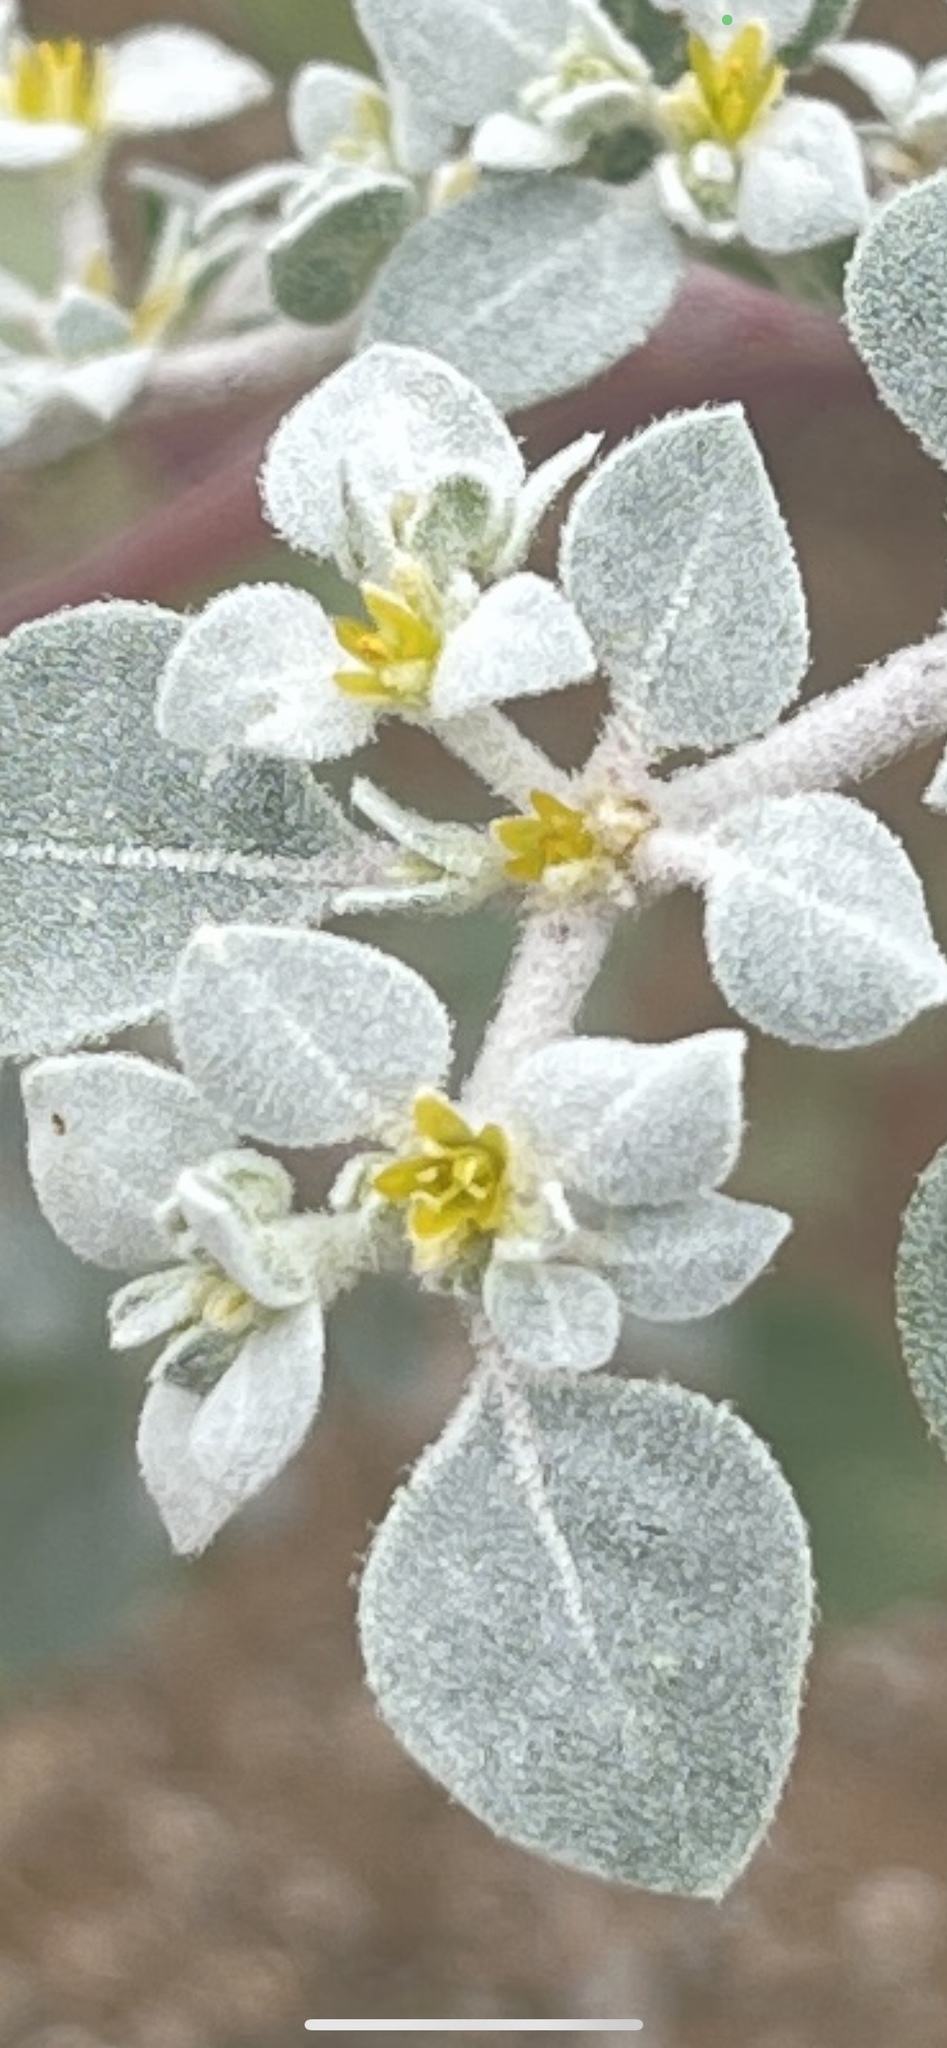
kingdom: Plantae
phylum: Tracheophyta
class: Magnoliopsida
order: Caryophyllales
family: Amaranthaceae
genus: Tidestromia
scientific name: Tidestromia lanuginosa
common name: Woolly tidestromia
